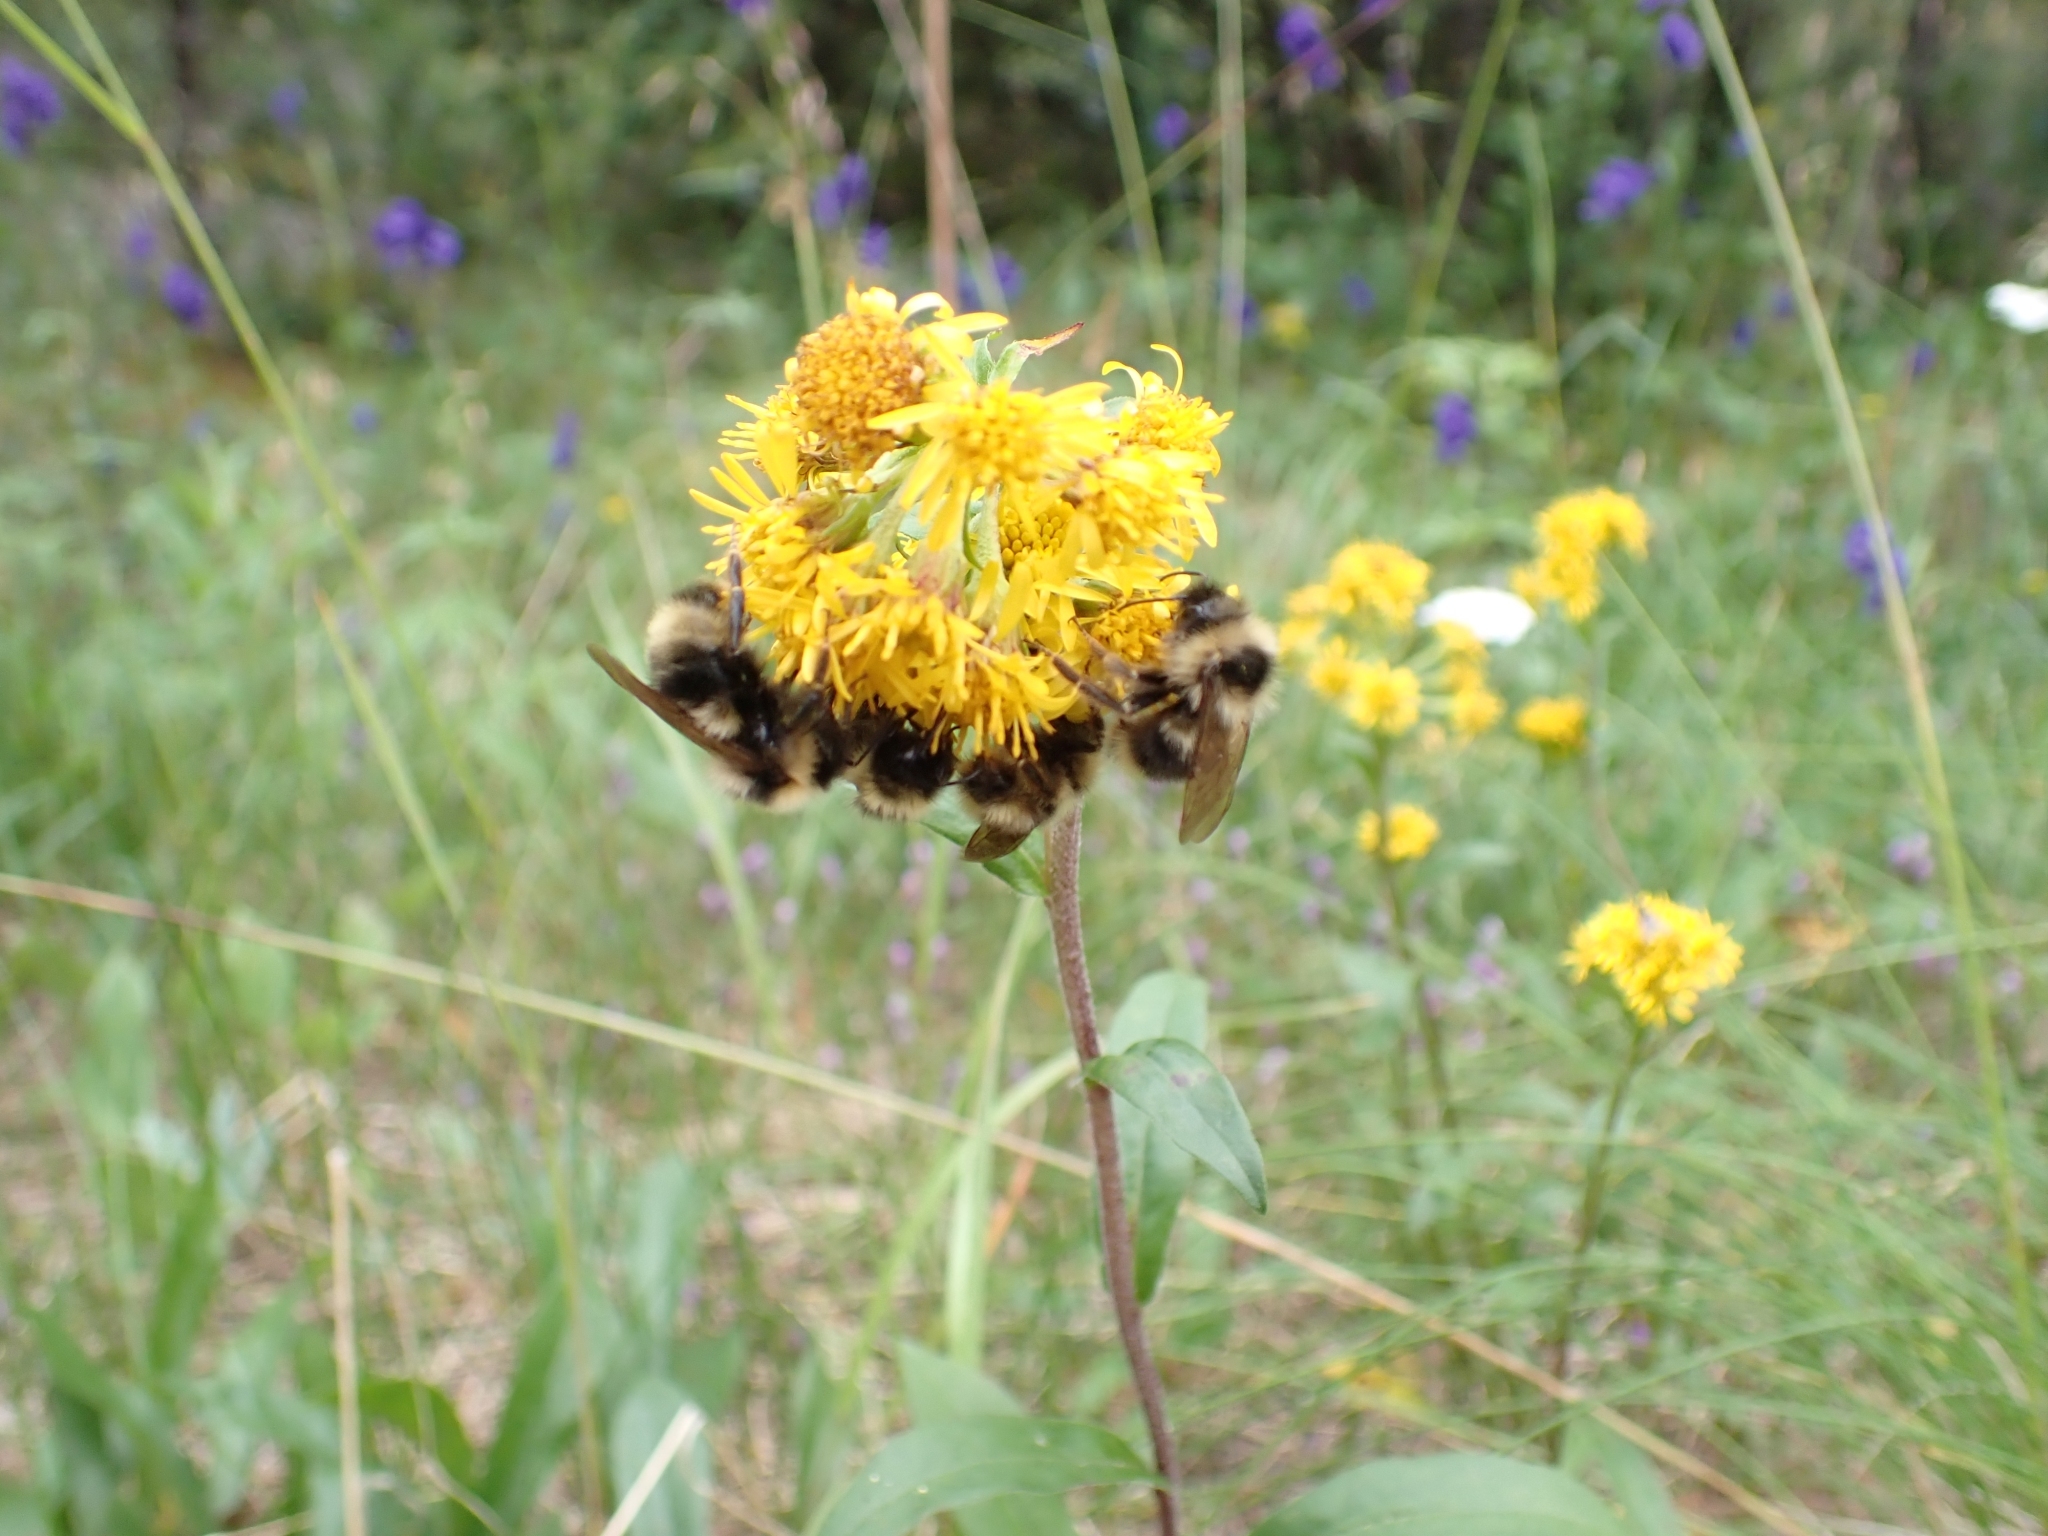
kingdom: Animalia
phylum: Arthropoda
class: Insecta
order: Hymenoptera
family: Apidae
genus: Bombus
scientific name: Bombus flavidus
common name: Fernald cuckoo bumble bee
